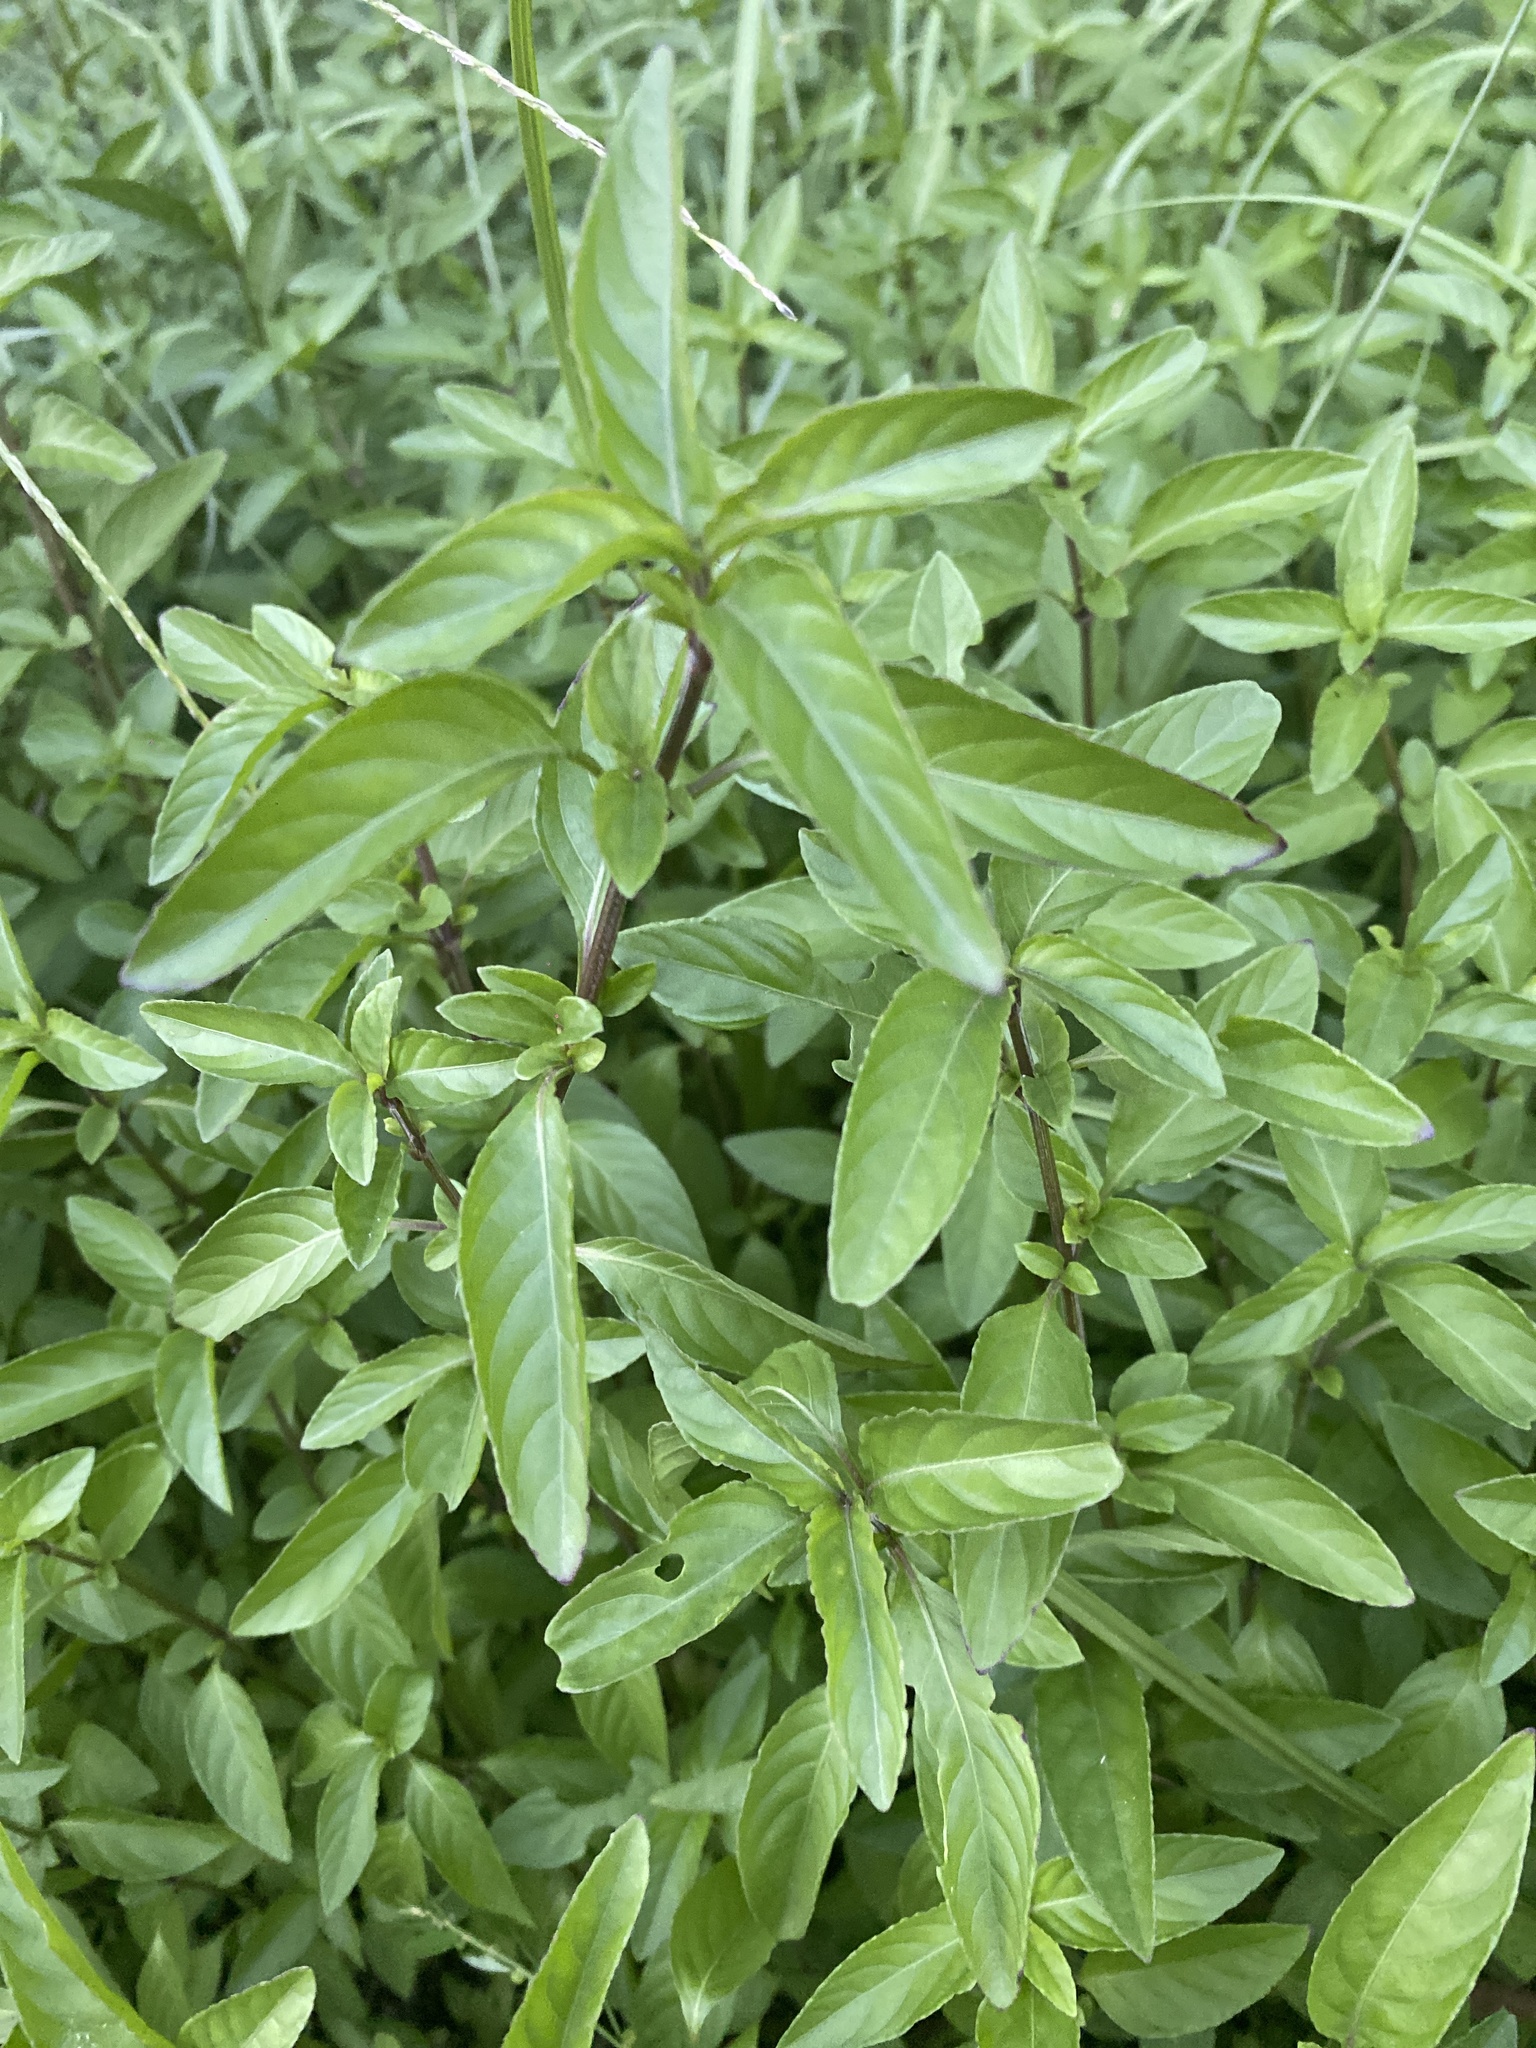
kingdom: Plantae
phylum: Tracheophyta
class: Magnoliopsida
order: Lamiales
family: Acanthaceae
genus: Hygrophila
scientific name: Hygrophila erecta
